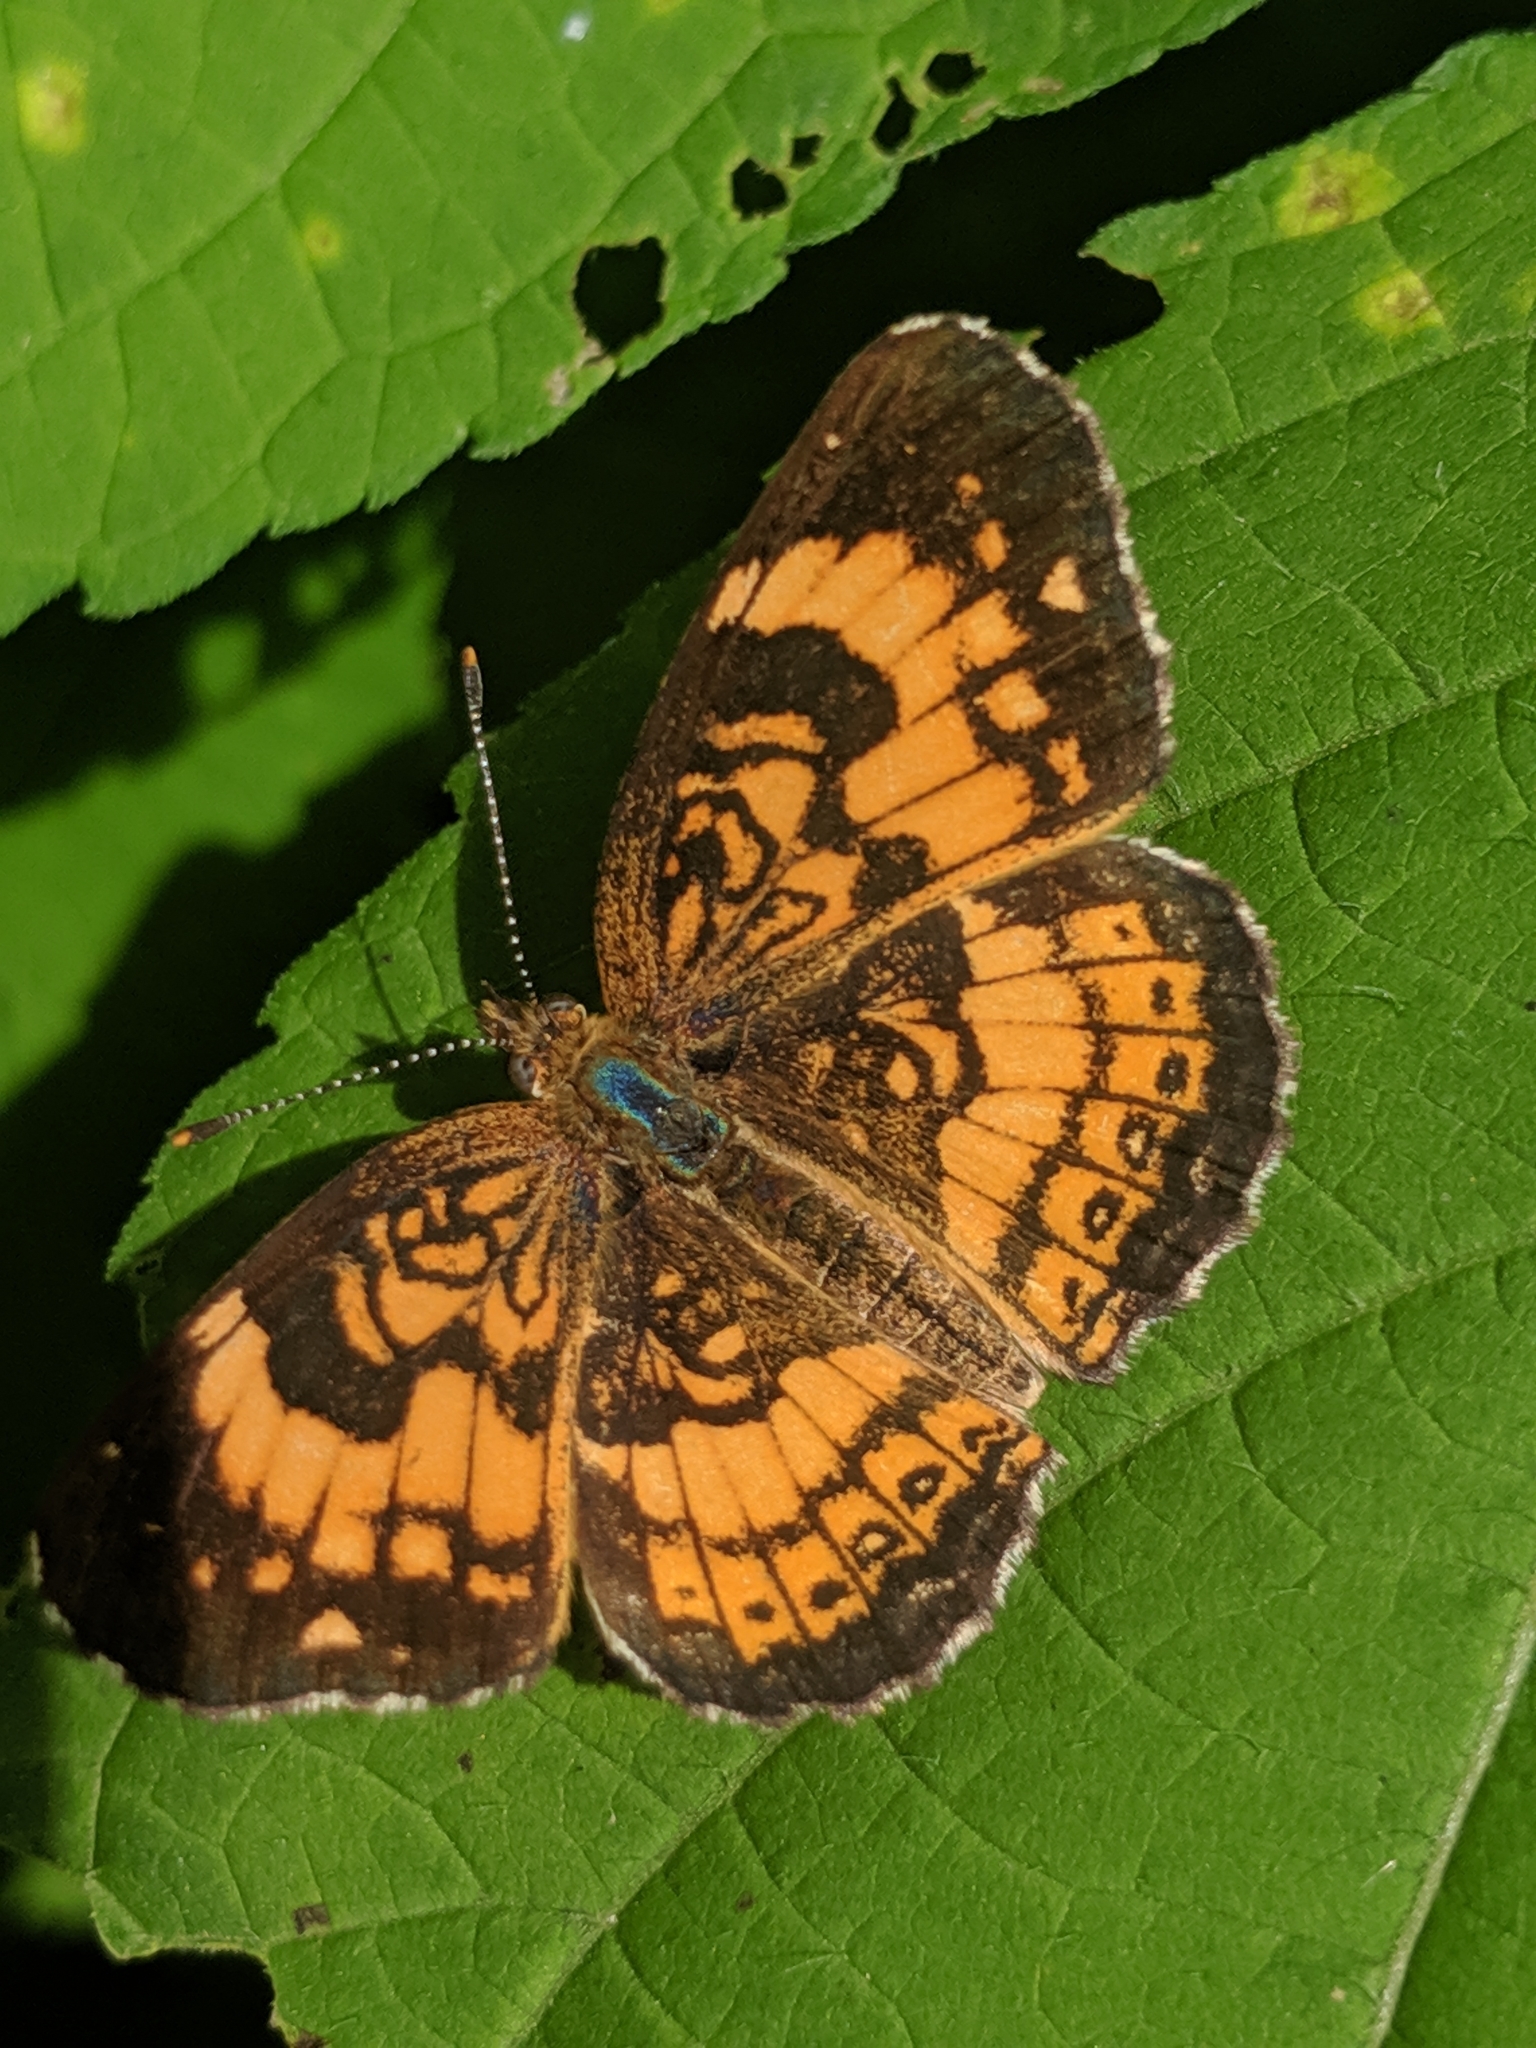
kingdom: Animalia
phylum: Arthropoda
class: Insecta
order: Lepidoptera
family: Nymphalidae
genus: Chlosyne
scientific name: Chlosyne nycteis
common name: Silvery checkerspot
